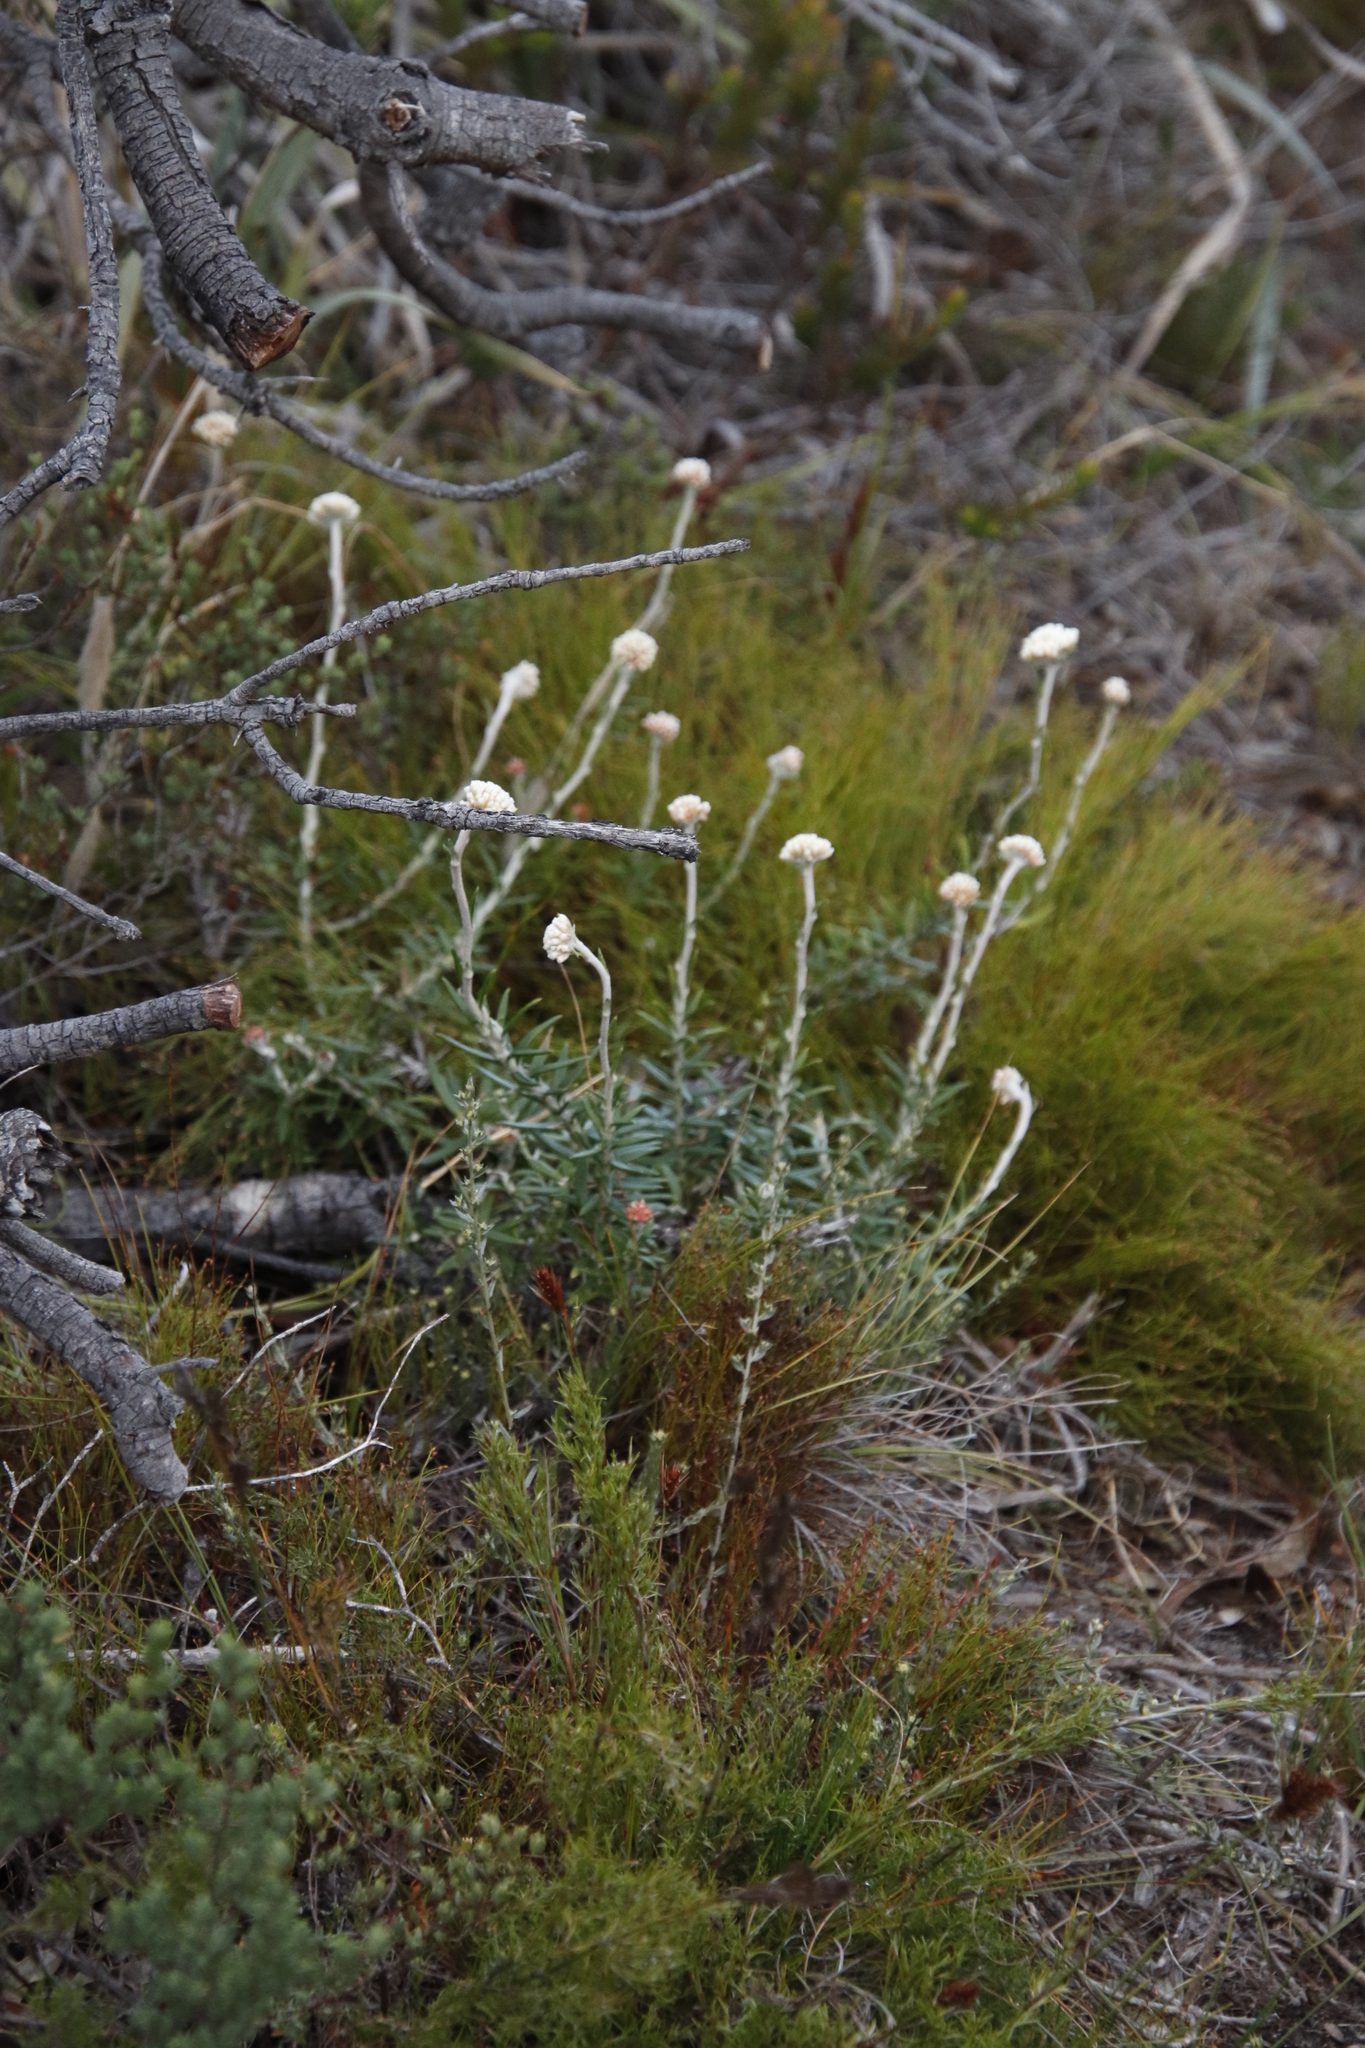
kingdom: Plantae
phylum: Tracheophyta
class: Magnoliopsida
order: Asterales
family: Asteraceae
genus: Anaxeton
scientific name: Anaxeton laeve
